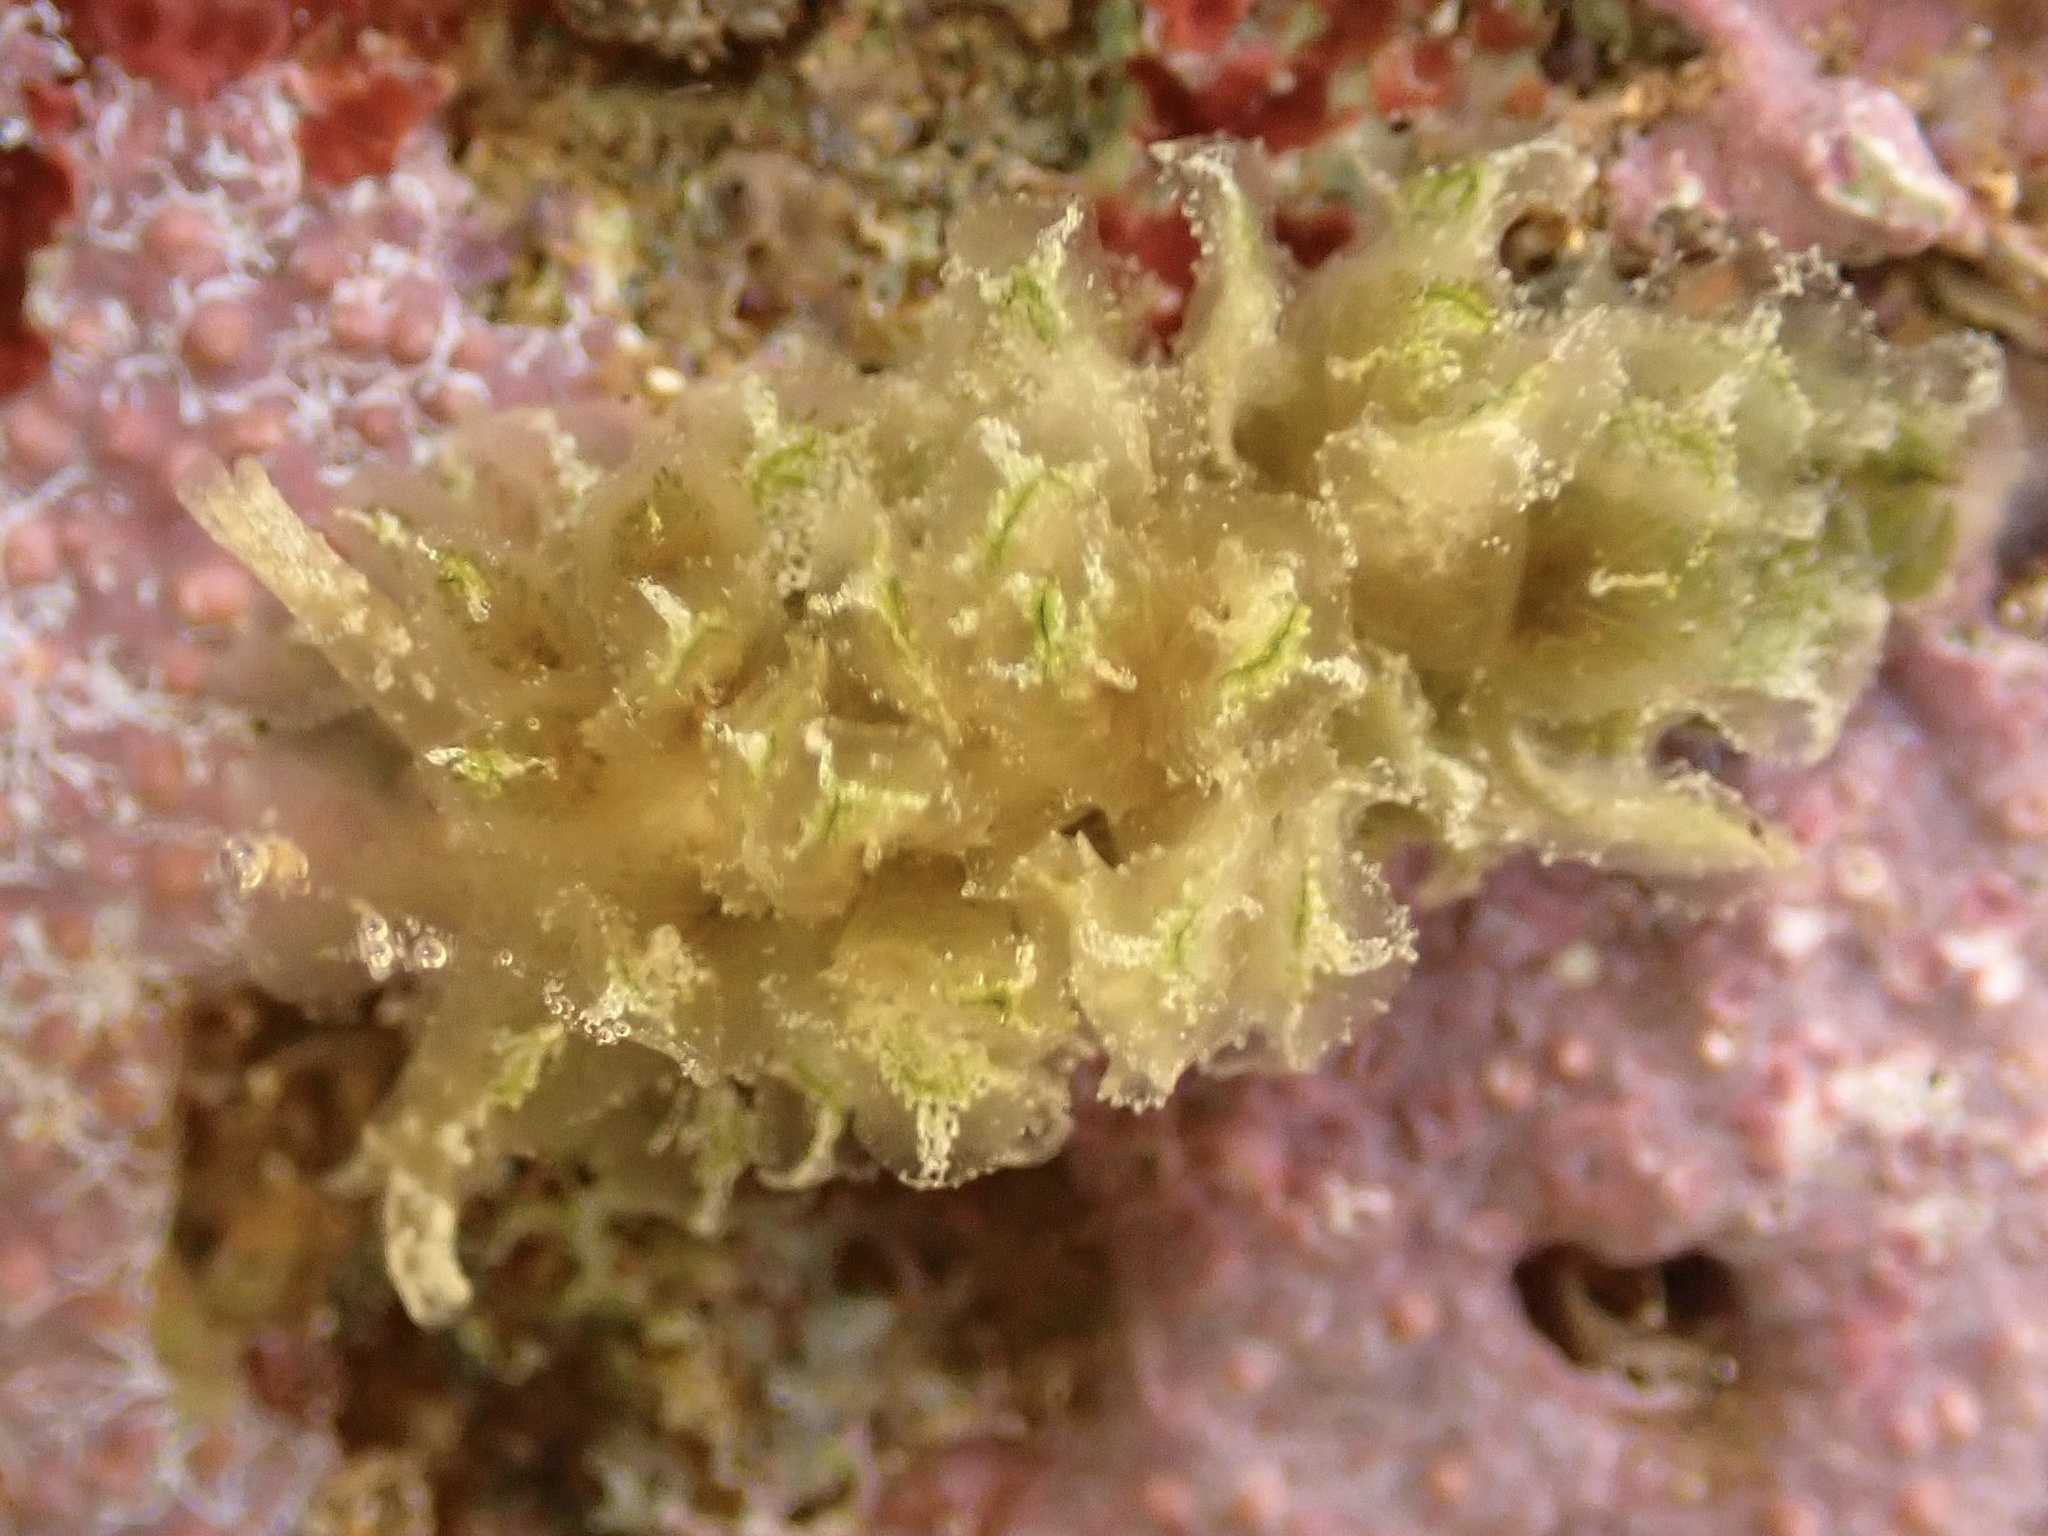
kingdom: Animalia
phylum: Mollusca
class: Gastropoda
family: Hermaeidae
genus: Polybranchia
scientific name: Polybranchia samanthae
